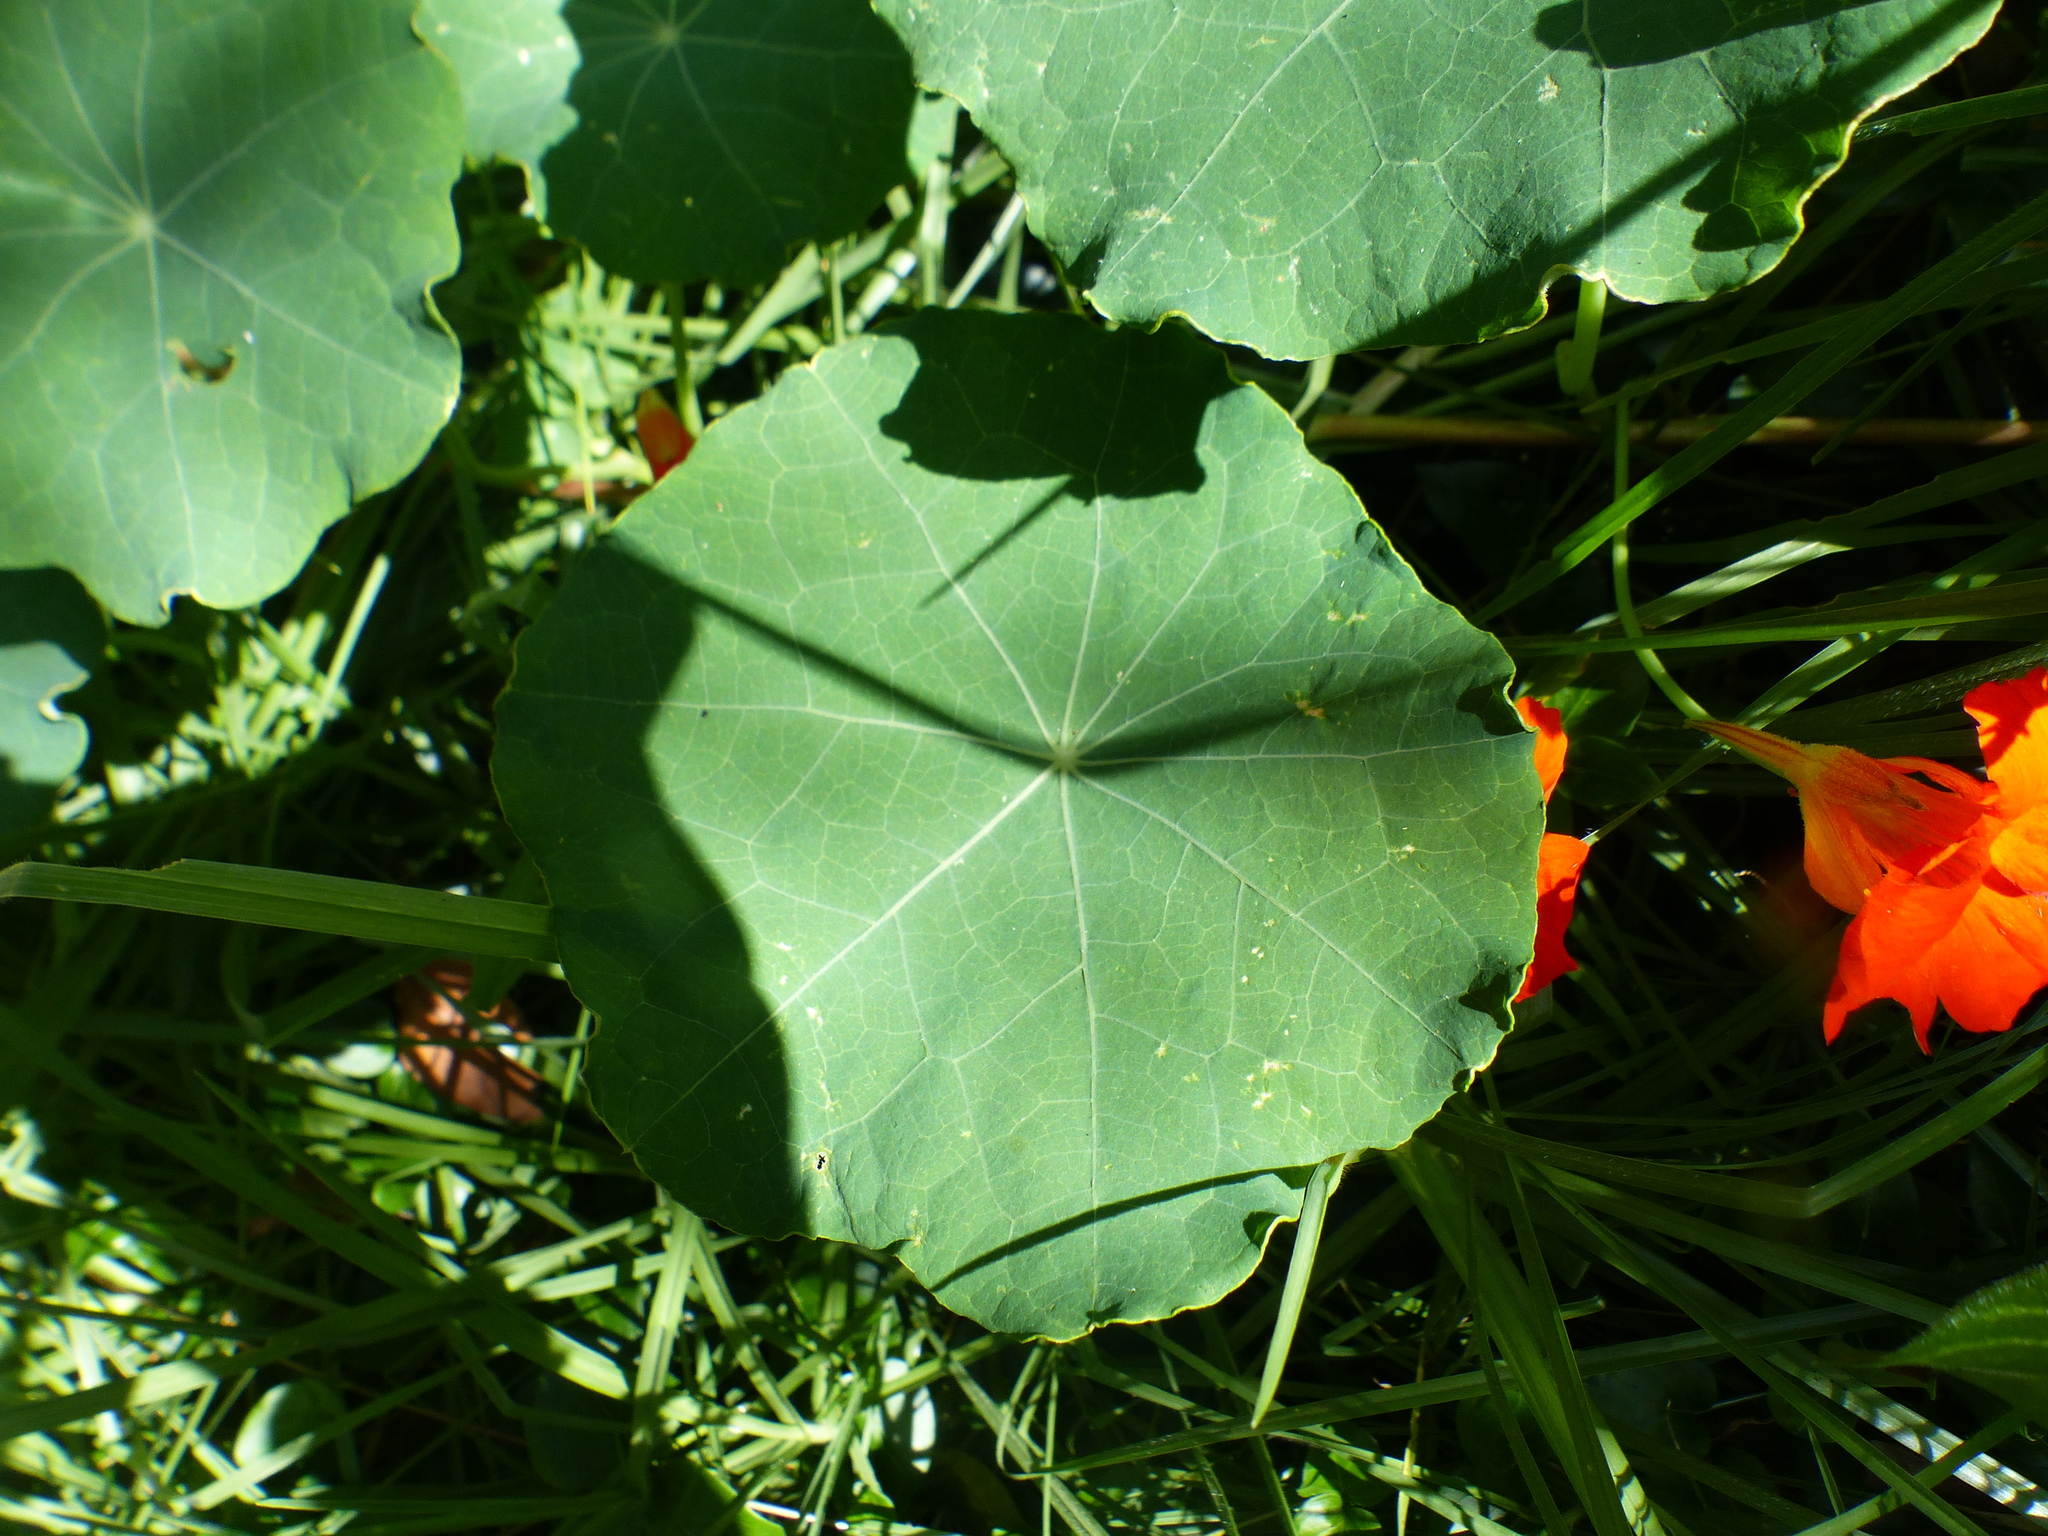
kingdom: Plantae
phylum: Tracheophyta
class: Magnoliopsida
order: Brassicales
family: Tropaeolaceae
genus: Tropaeolum
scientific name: Tropaeolum majus
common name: Nasturtium
